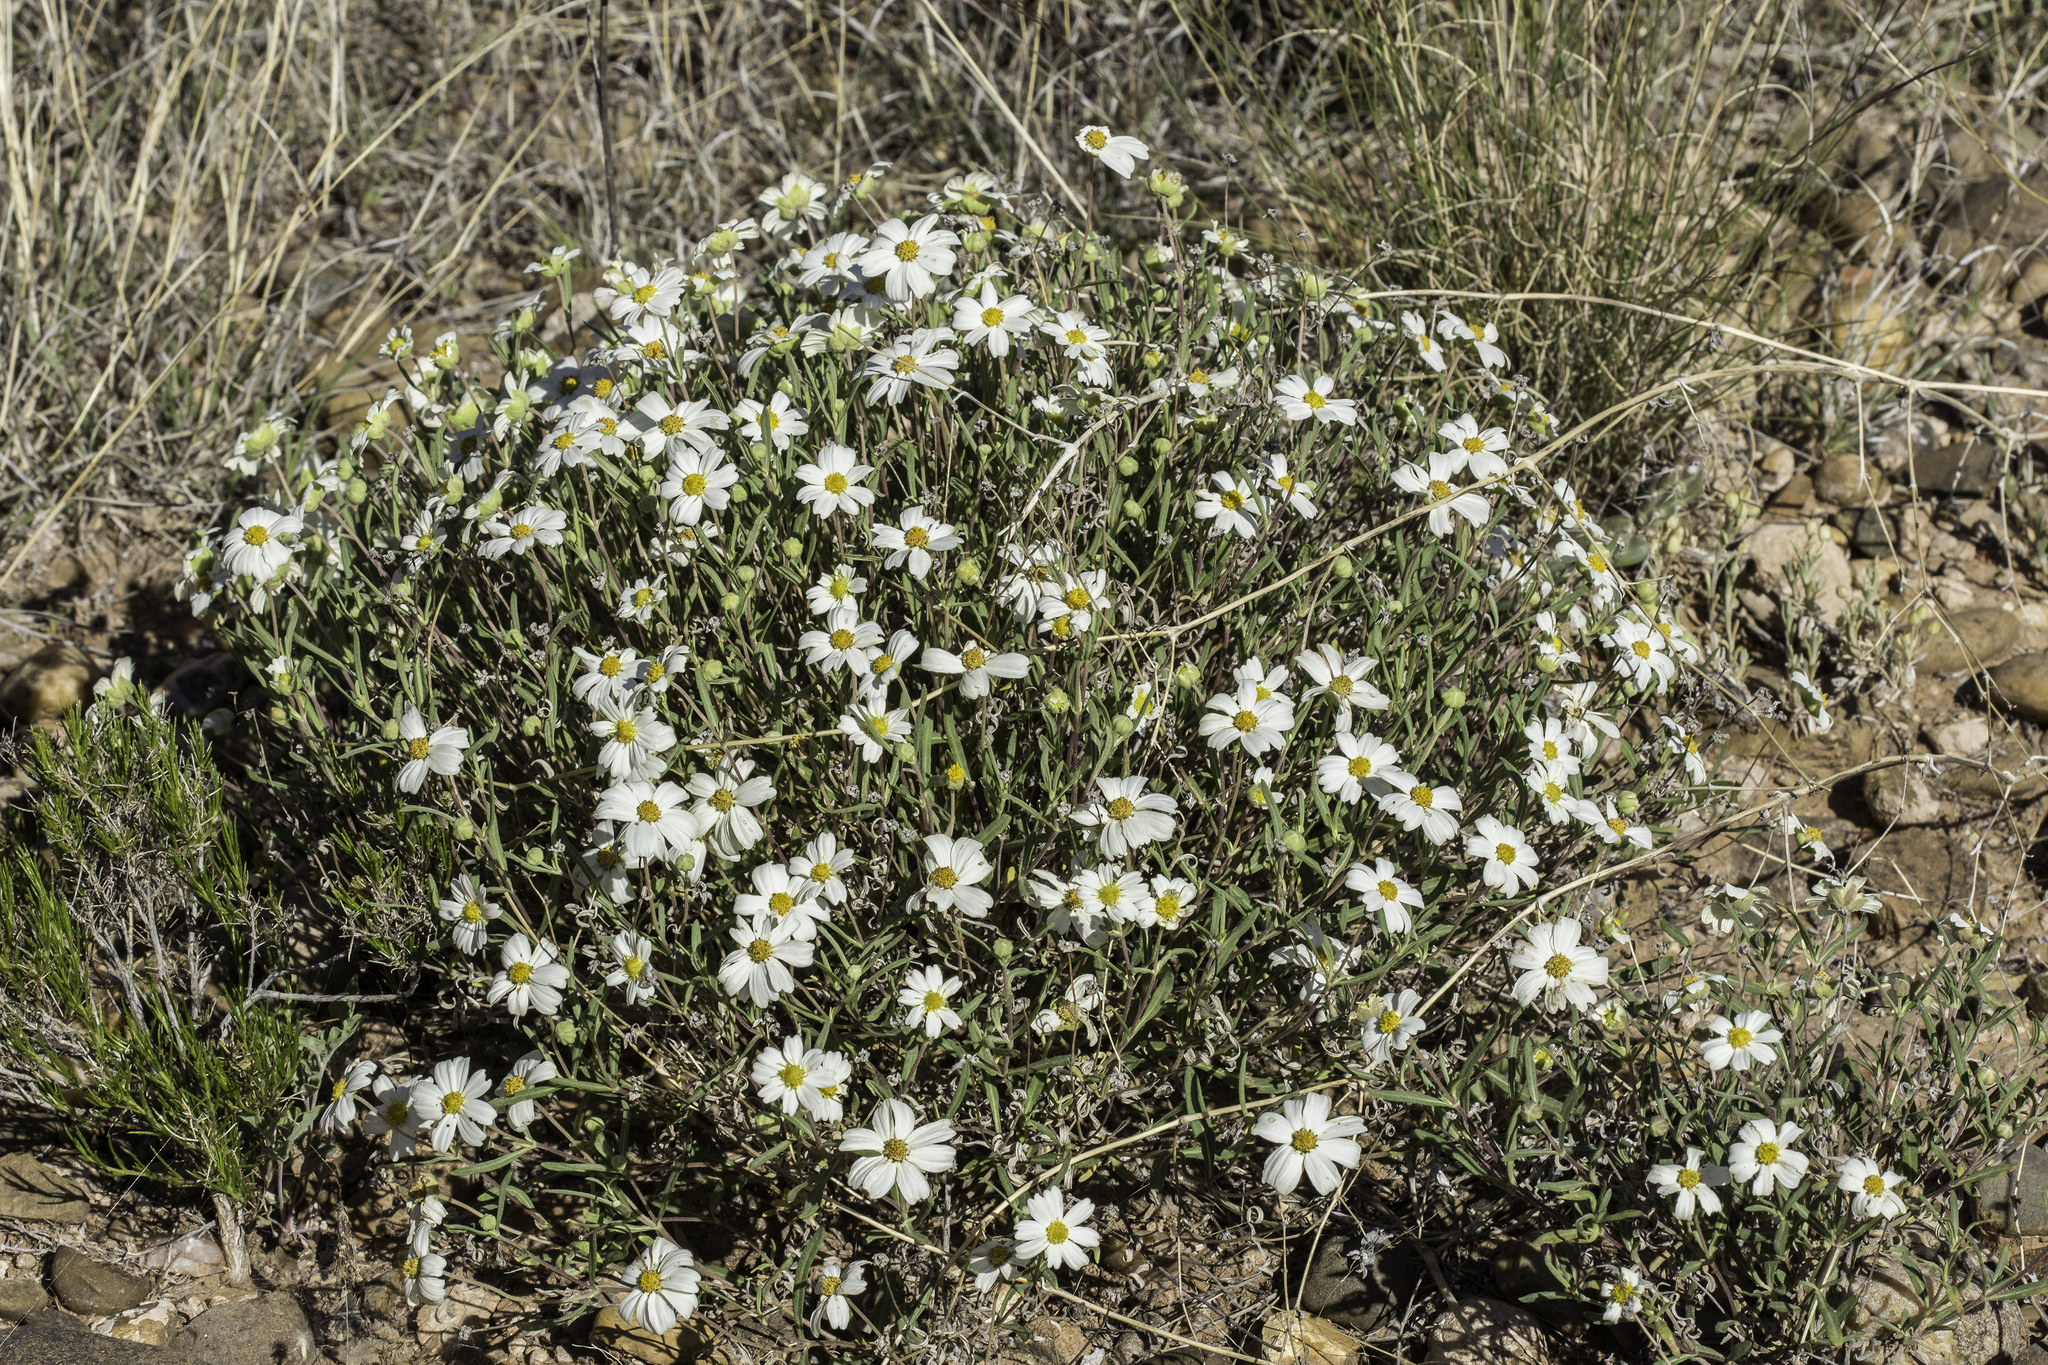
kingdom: Plantae
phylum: Tracheophyta
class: Magnoliopsida
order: Asterales
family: Asteraceae
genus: Melampodium
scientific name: Melampodium leucanthum
